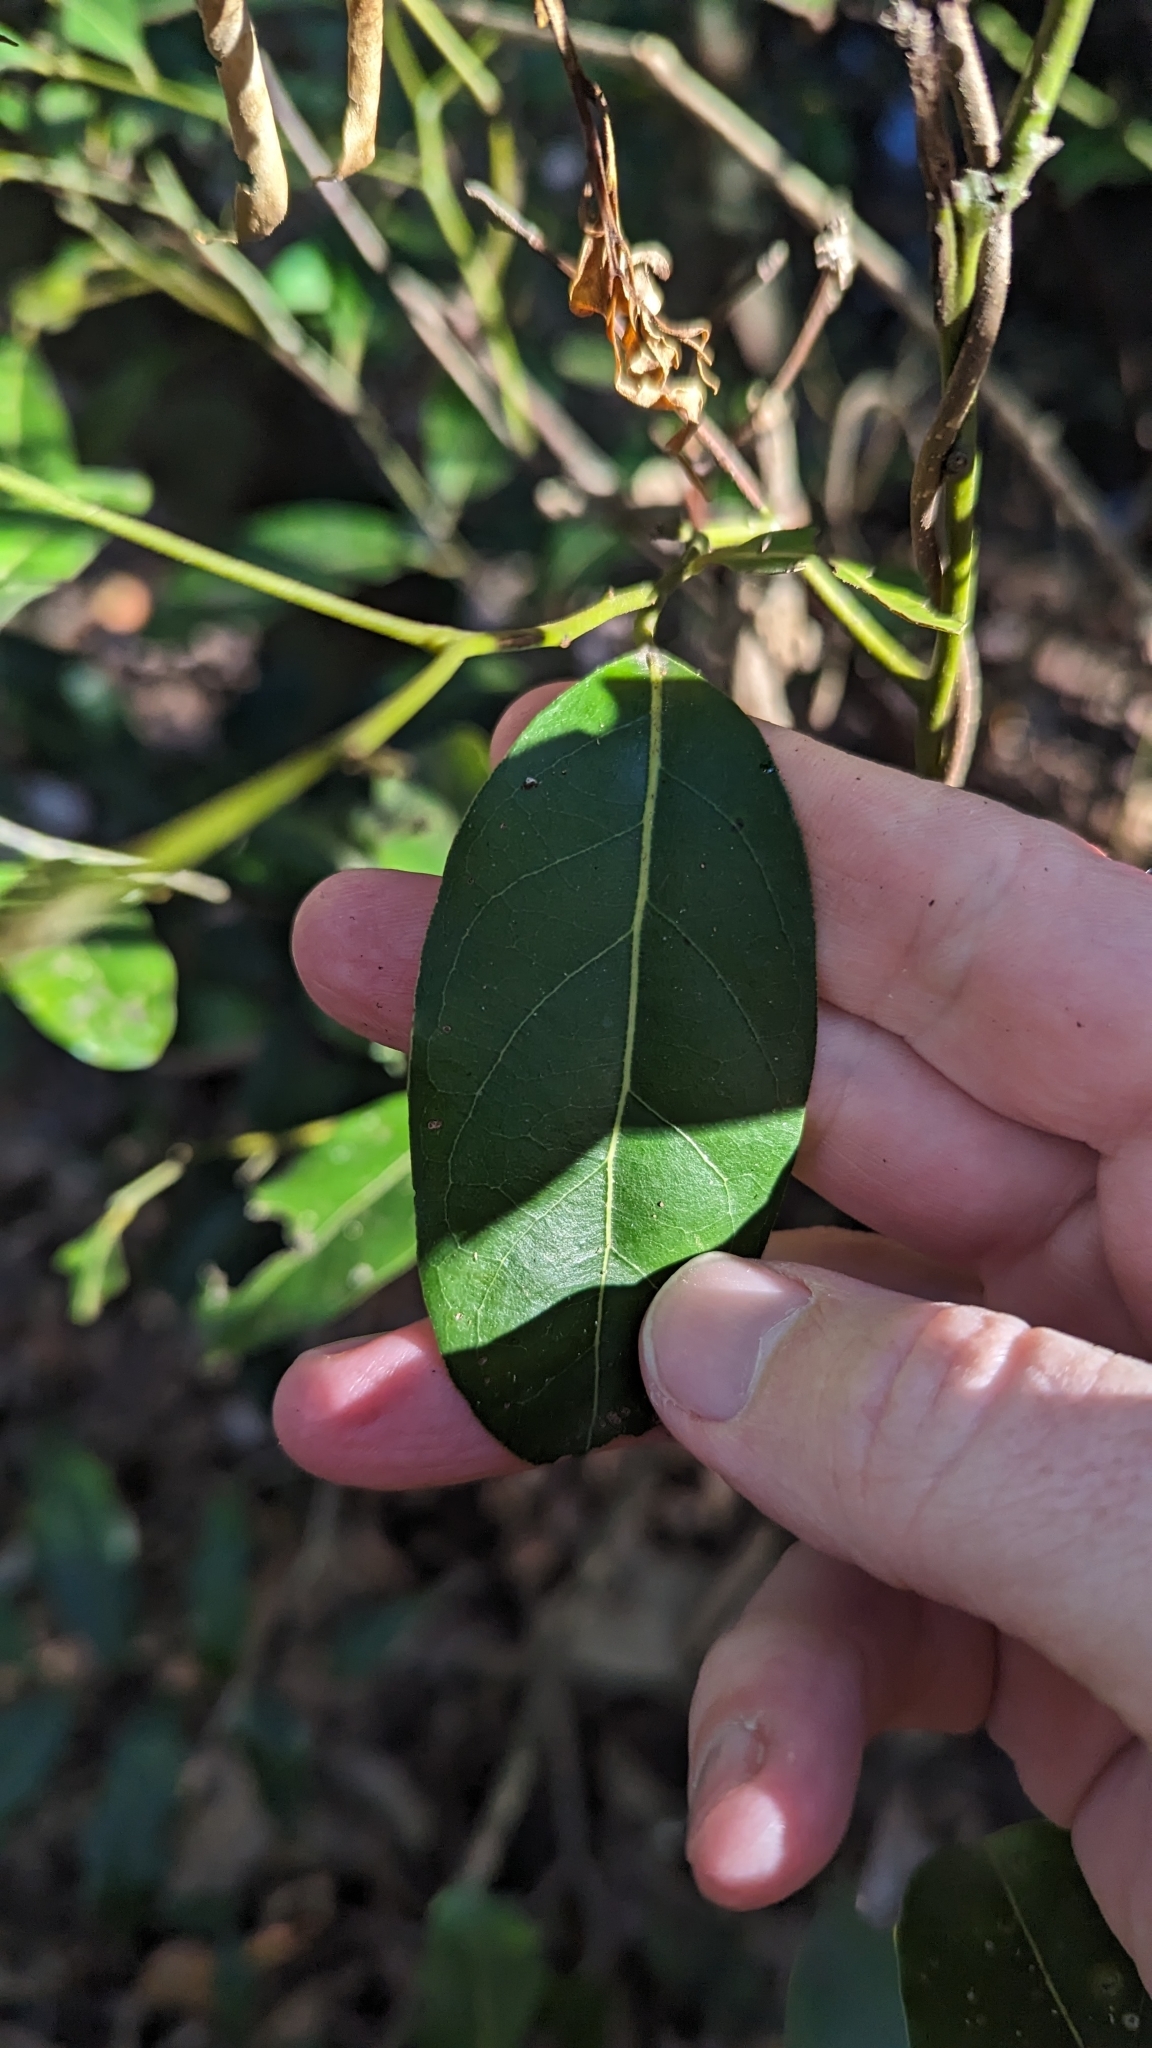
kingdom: Plantae
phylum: Tracheophyta
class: Magnoliopsida
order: Laurales
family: Lauraceae
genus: Cryptocarya
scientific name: Cryptocarya microneura
